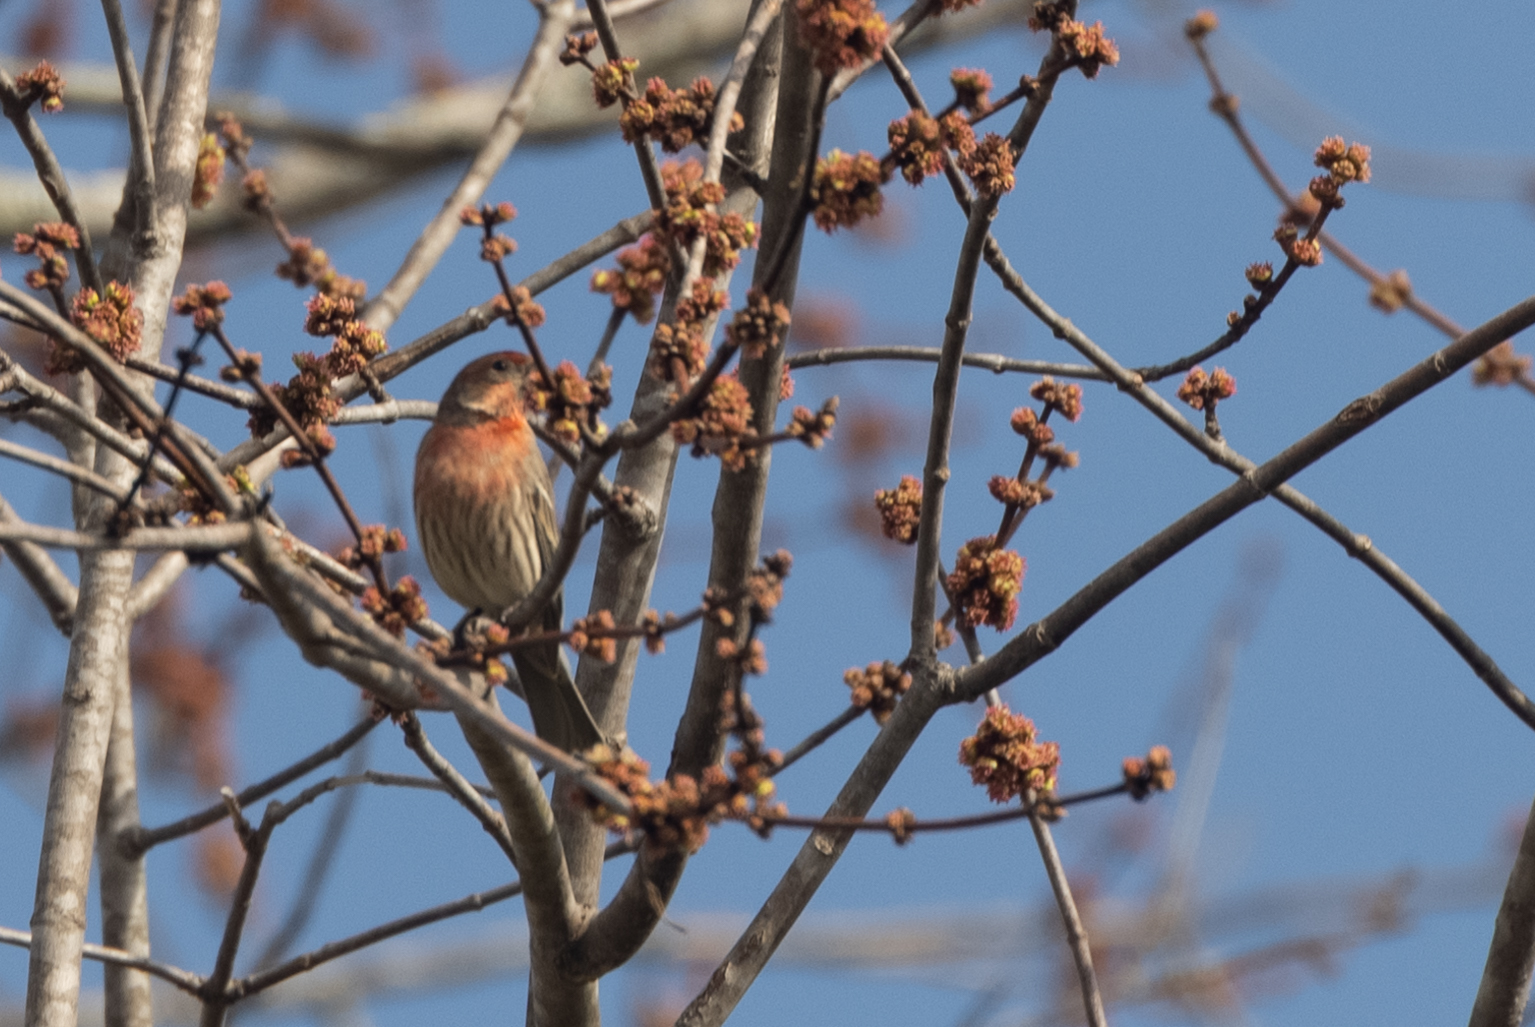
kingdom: Animalia
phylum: Chordata
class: Aves
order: Passeriformes
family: Fringillidae
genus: Haemorhous
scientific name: Haemorhous mexicanus
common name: House finch
